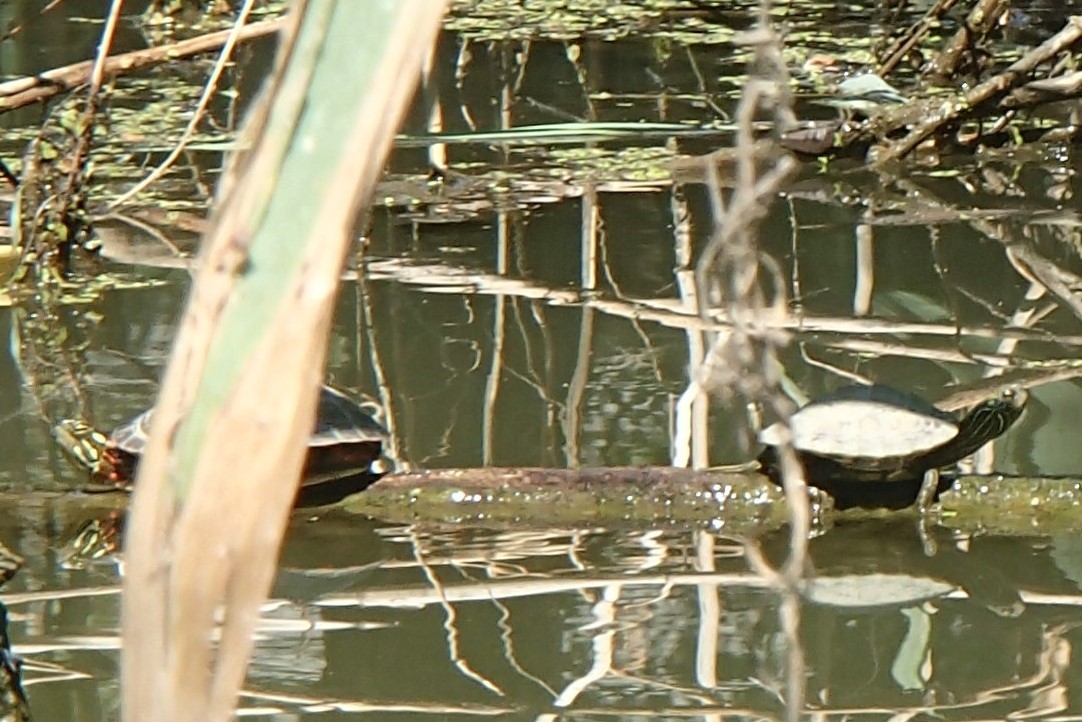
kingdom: Animalia
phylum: Chordata
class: Testudines
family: Emydidae
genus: Graptemys
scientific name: Graptemys geographica
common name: Common map turtle
